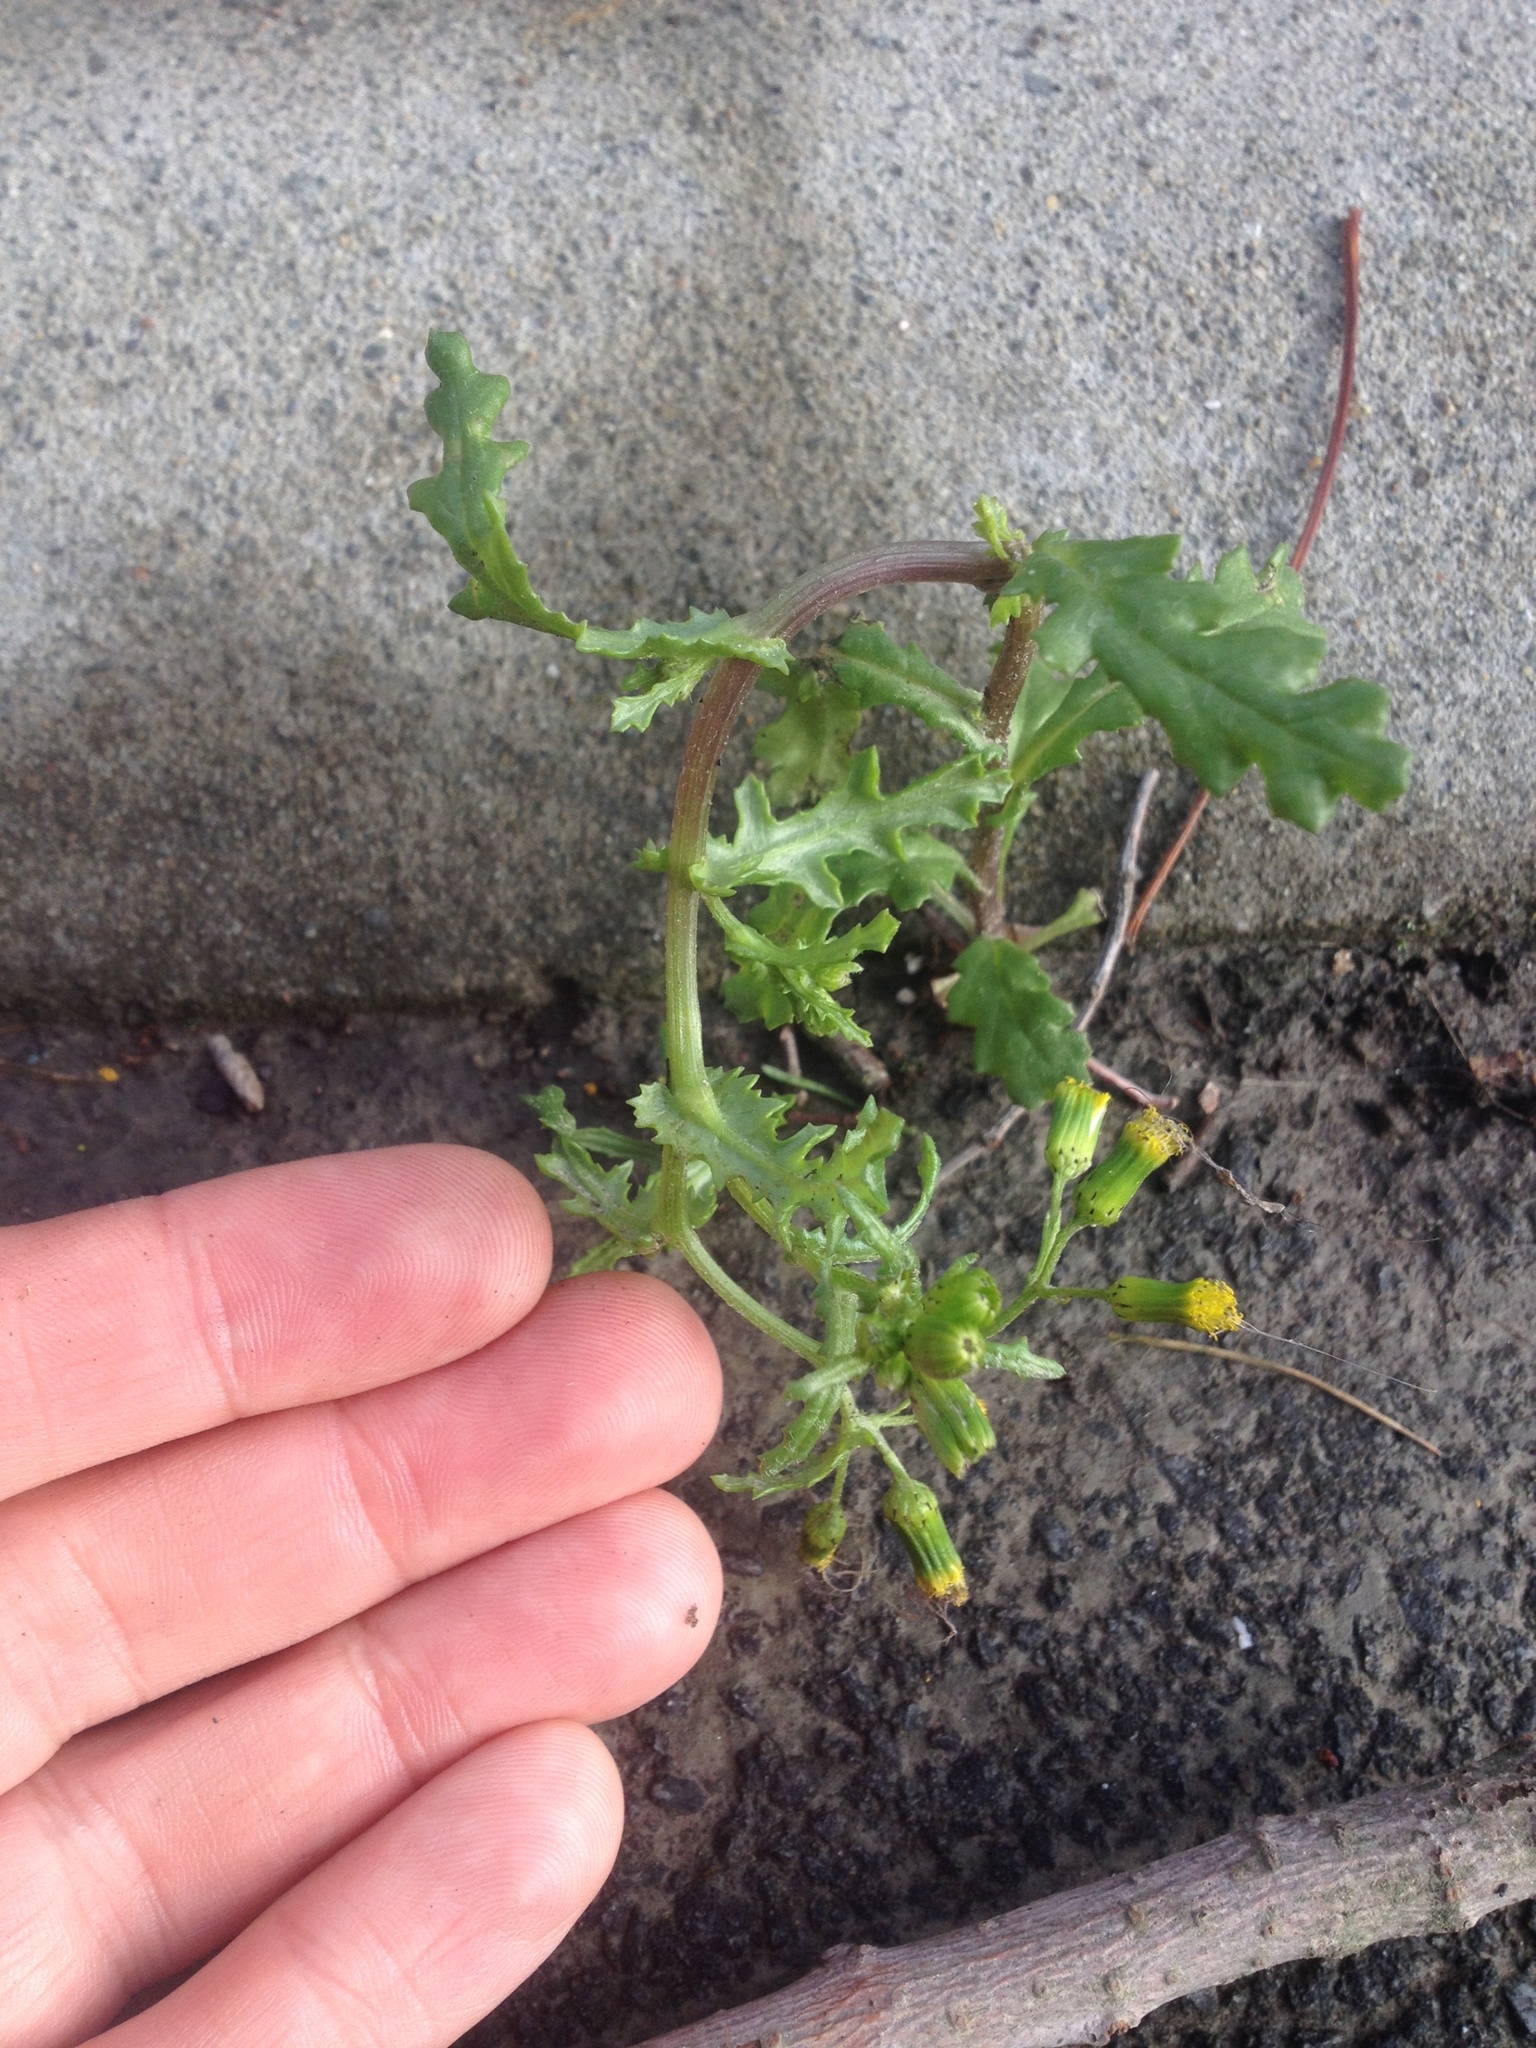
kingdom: Plantae
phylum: Tracheophyta
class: Magnoliopsida
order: Asterales
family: Asteraceae
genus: Senecio
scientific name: Senecio vulgaris
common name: Old-man-in-the-spring
